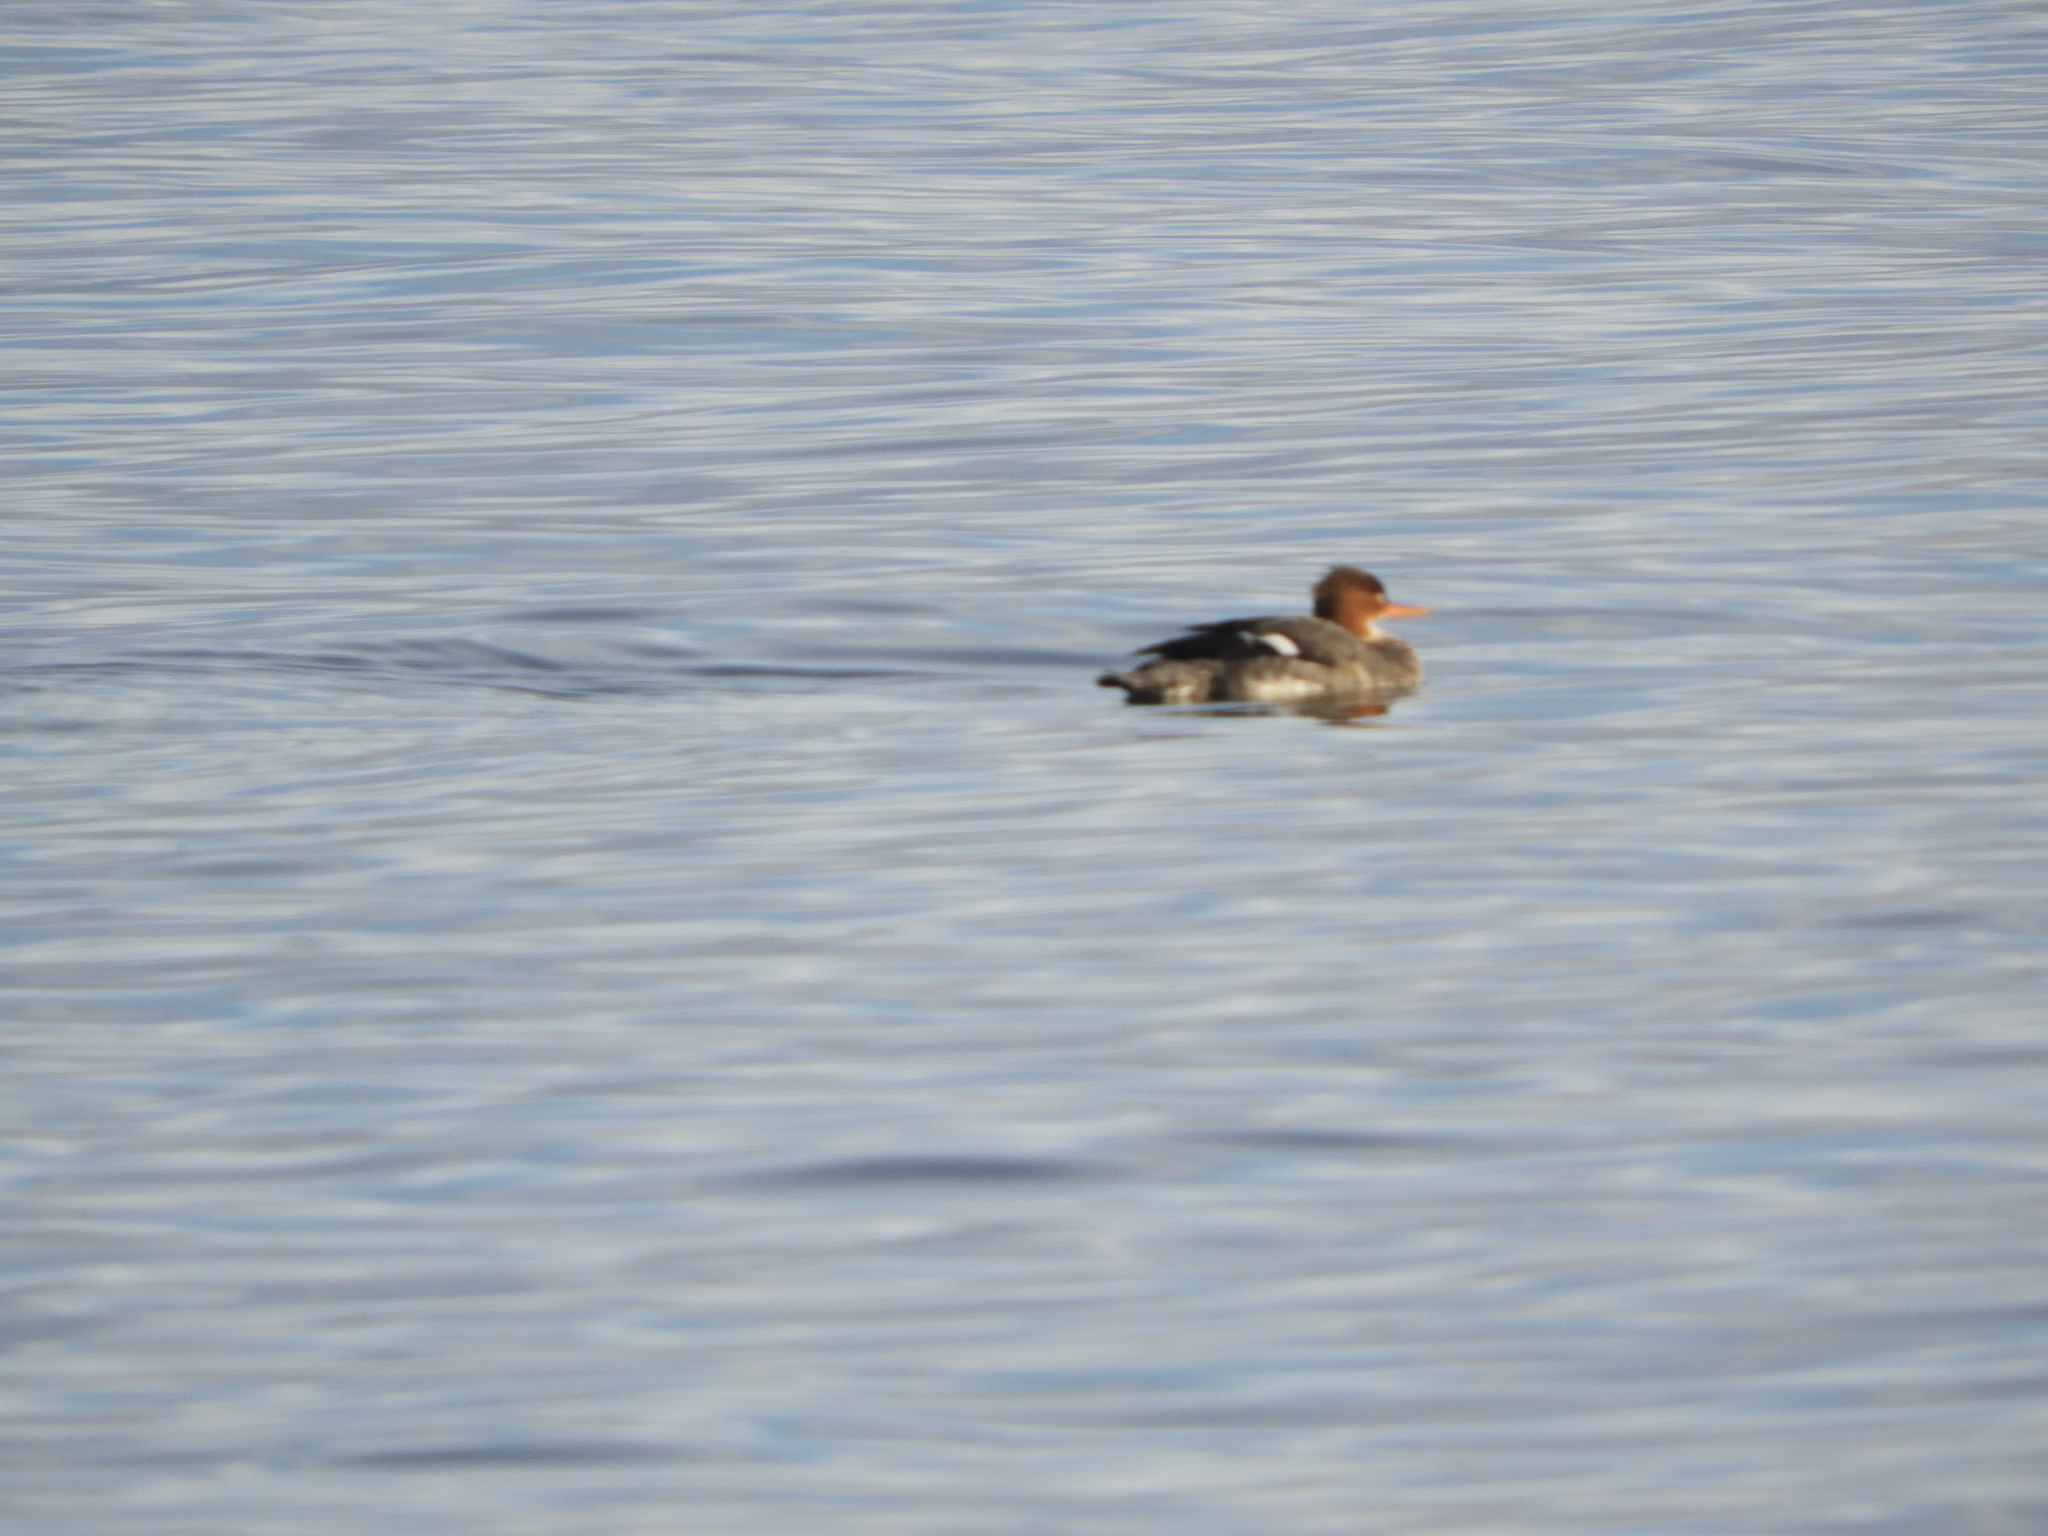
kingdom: Animalia
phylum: Chordata
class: Aves
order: Anseriformes
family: Anatidae
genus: Mergus
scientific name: Mergus serrator
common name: Red-breasted merganser
